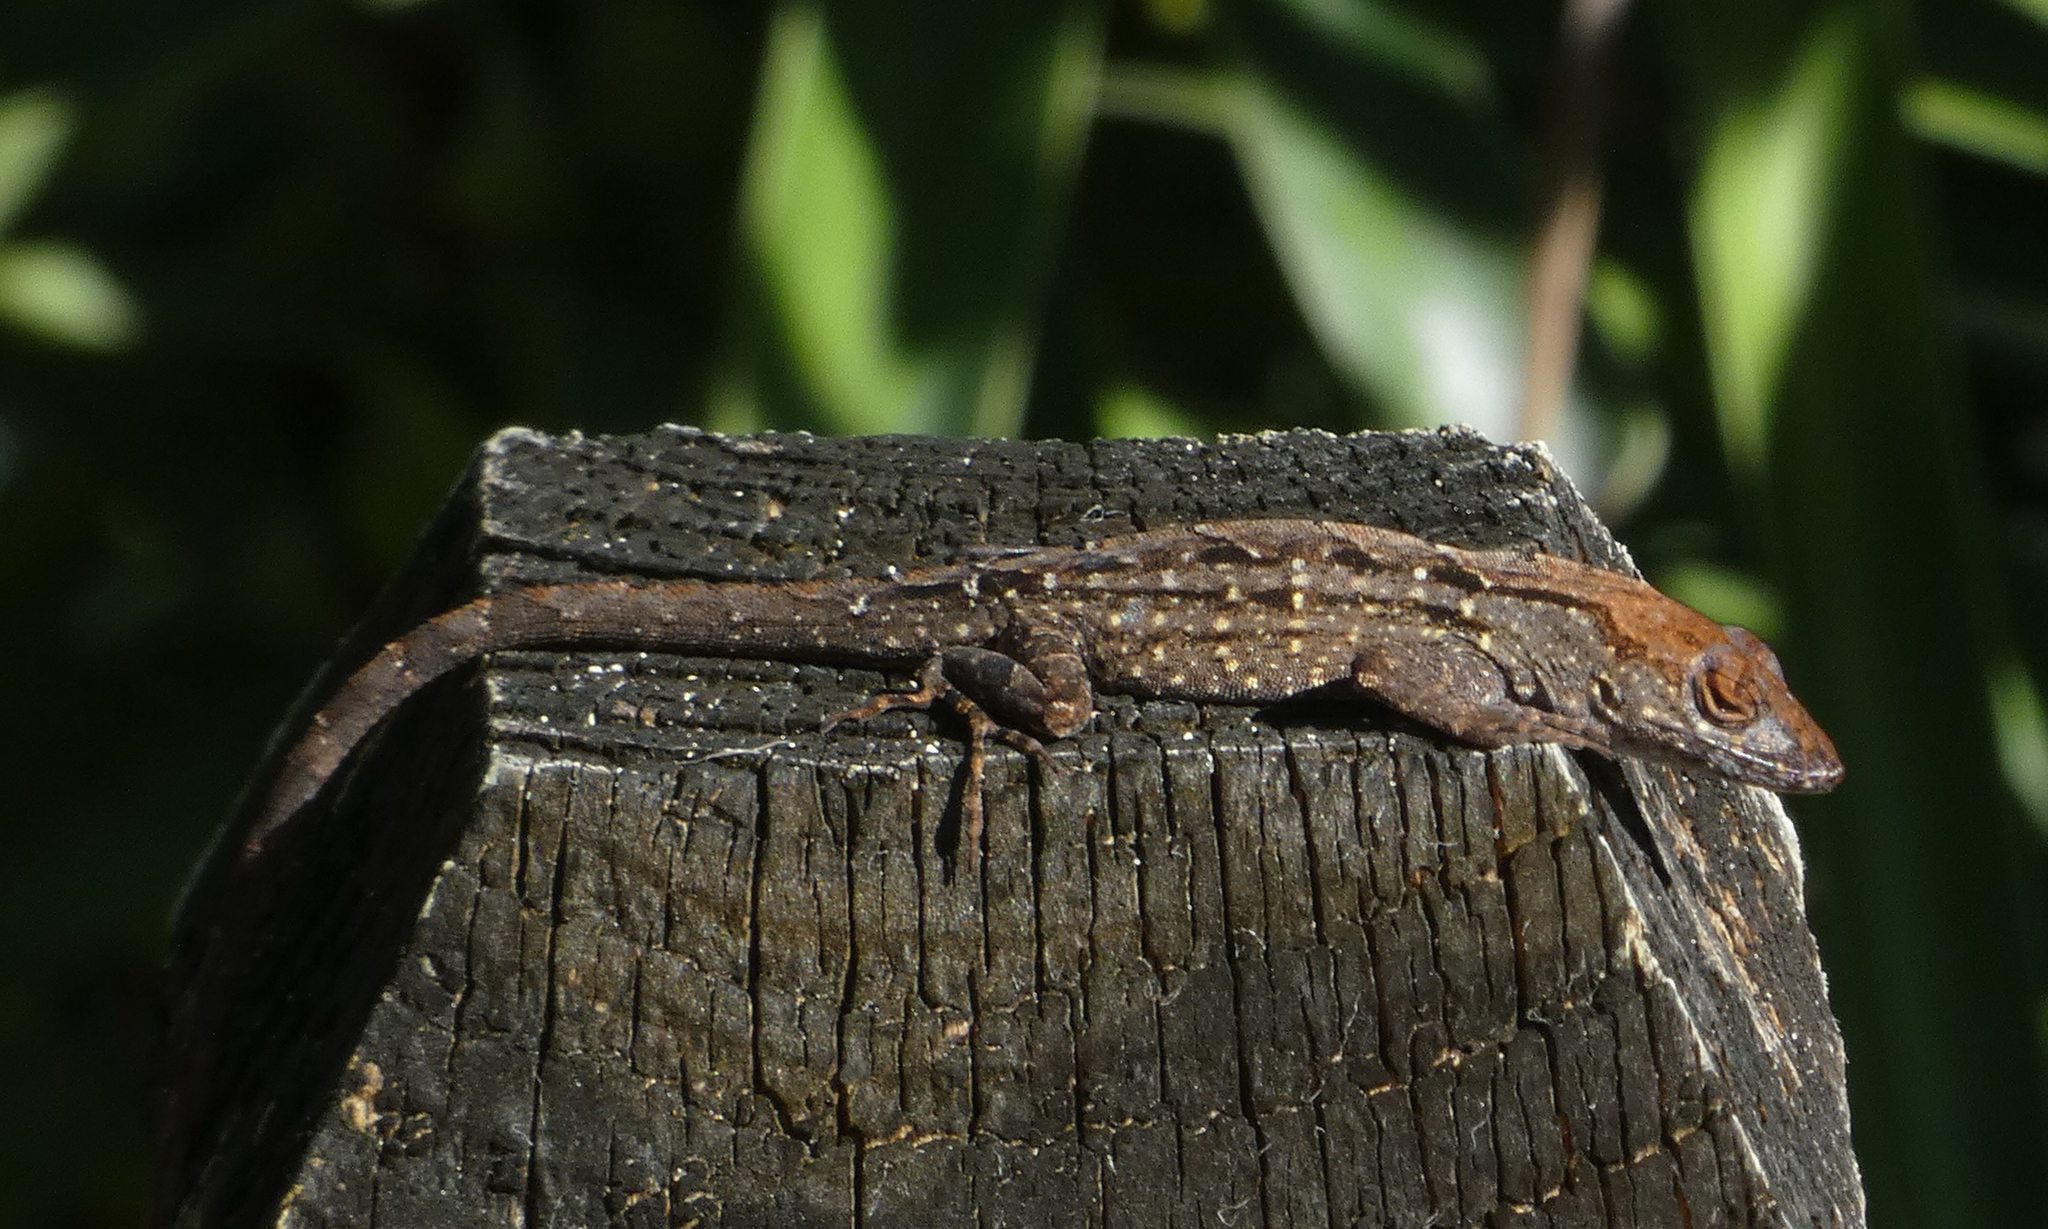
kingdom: Animalia
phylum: Chordata
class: Squamata
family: Dactyloidae
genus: Anolis
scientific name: Anolis sagrei
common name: Brown anole
